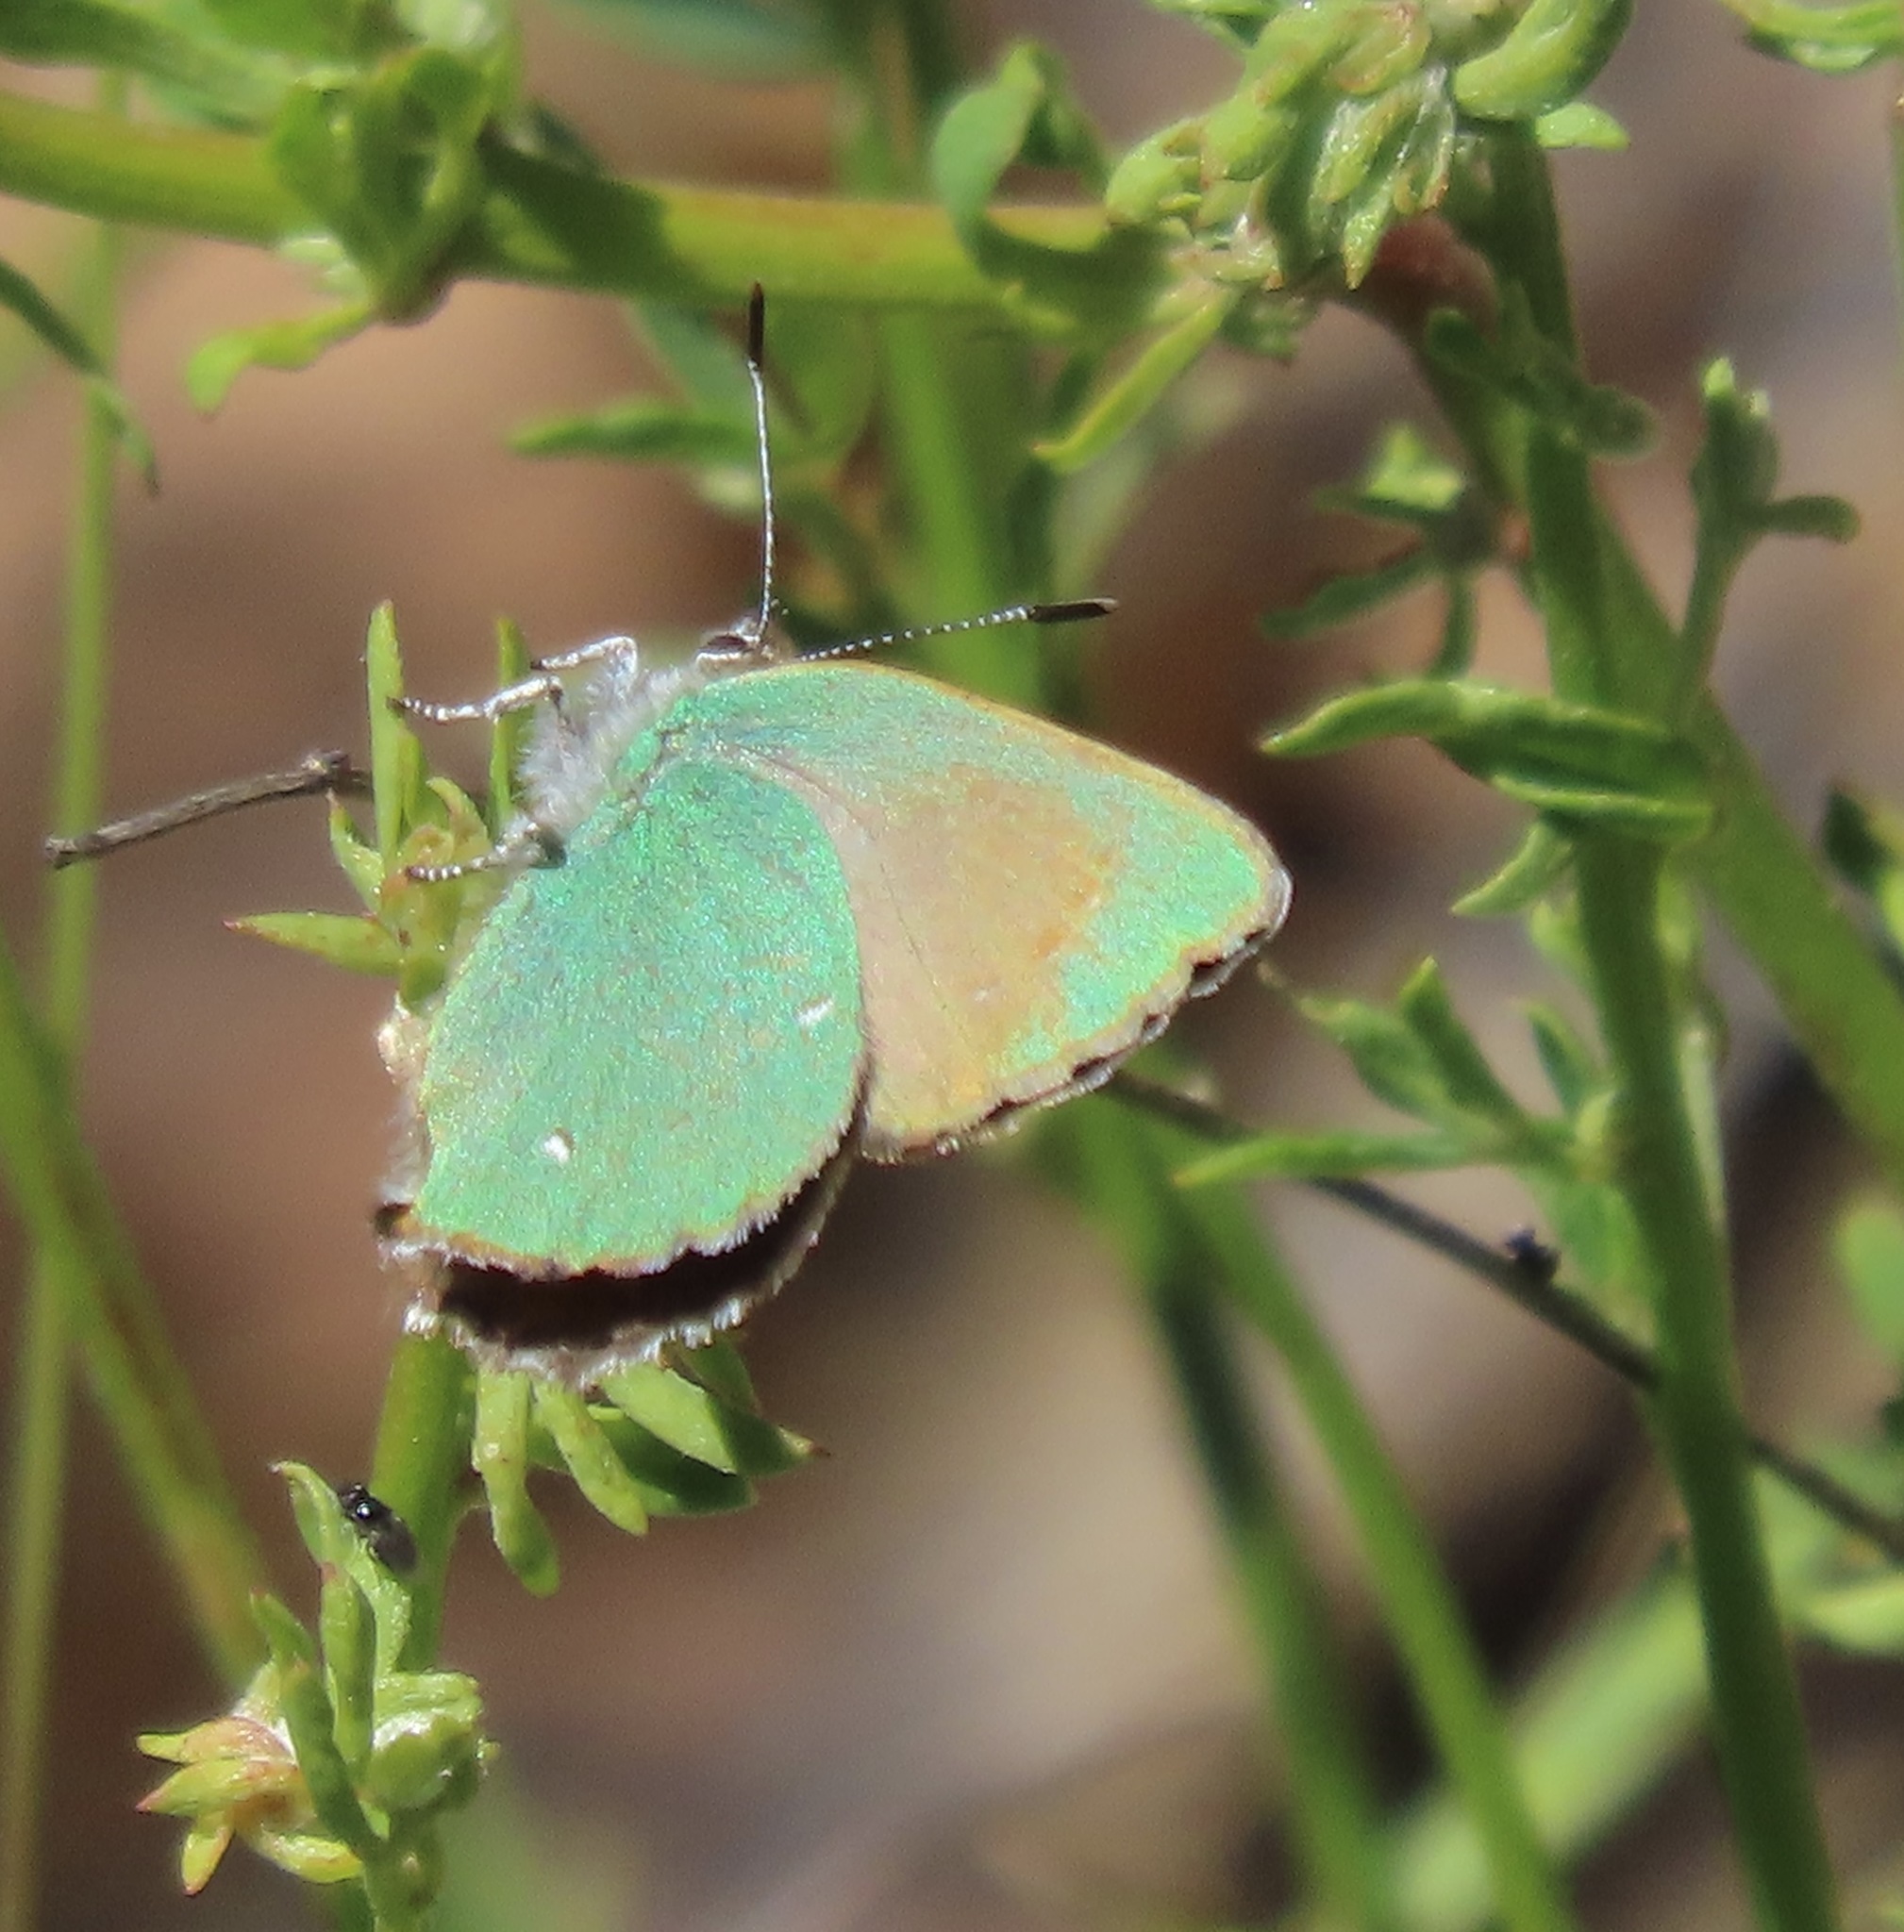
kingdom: Animalia
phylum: Arthropoda
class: Insecta
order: Lepidoptera
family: Lycaenidae
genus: Callophrys
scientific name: Callophrys dumetorum
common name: Bramble hairstreak
